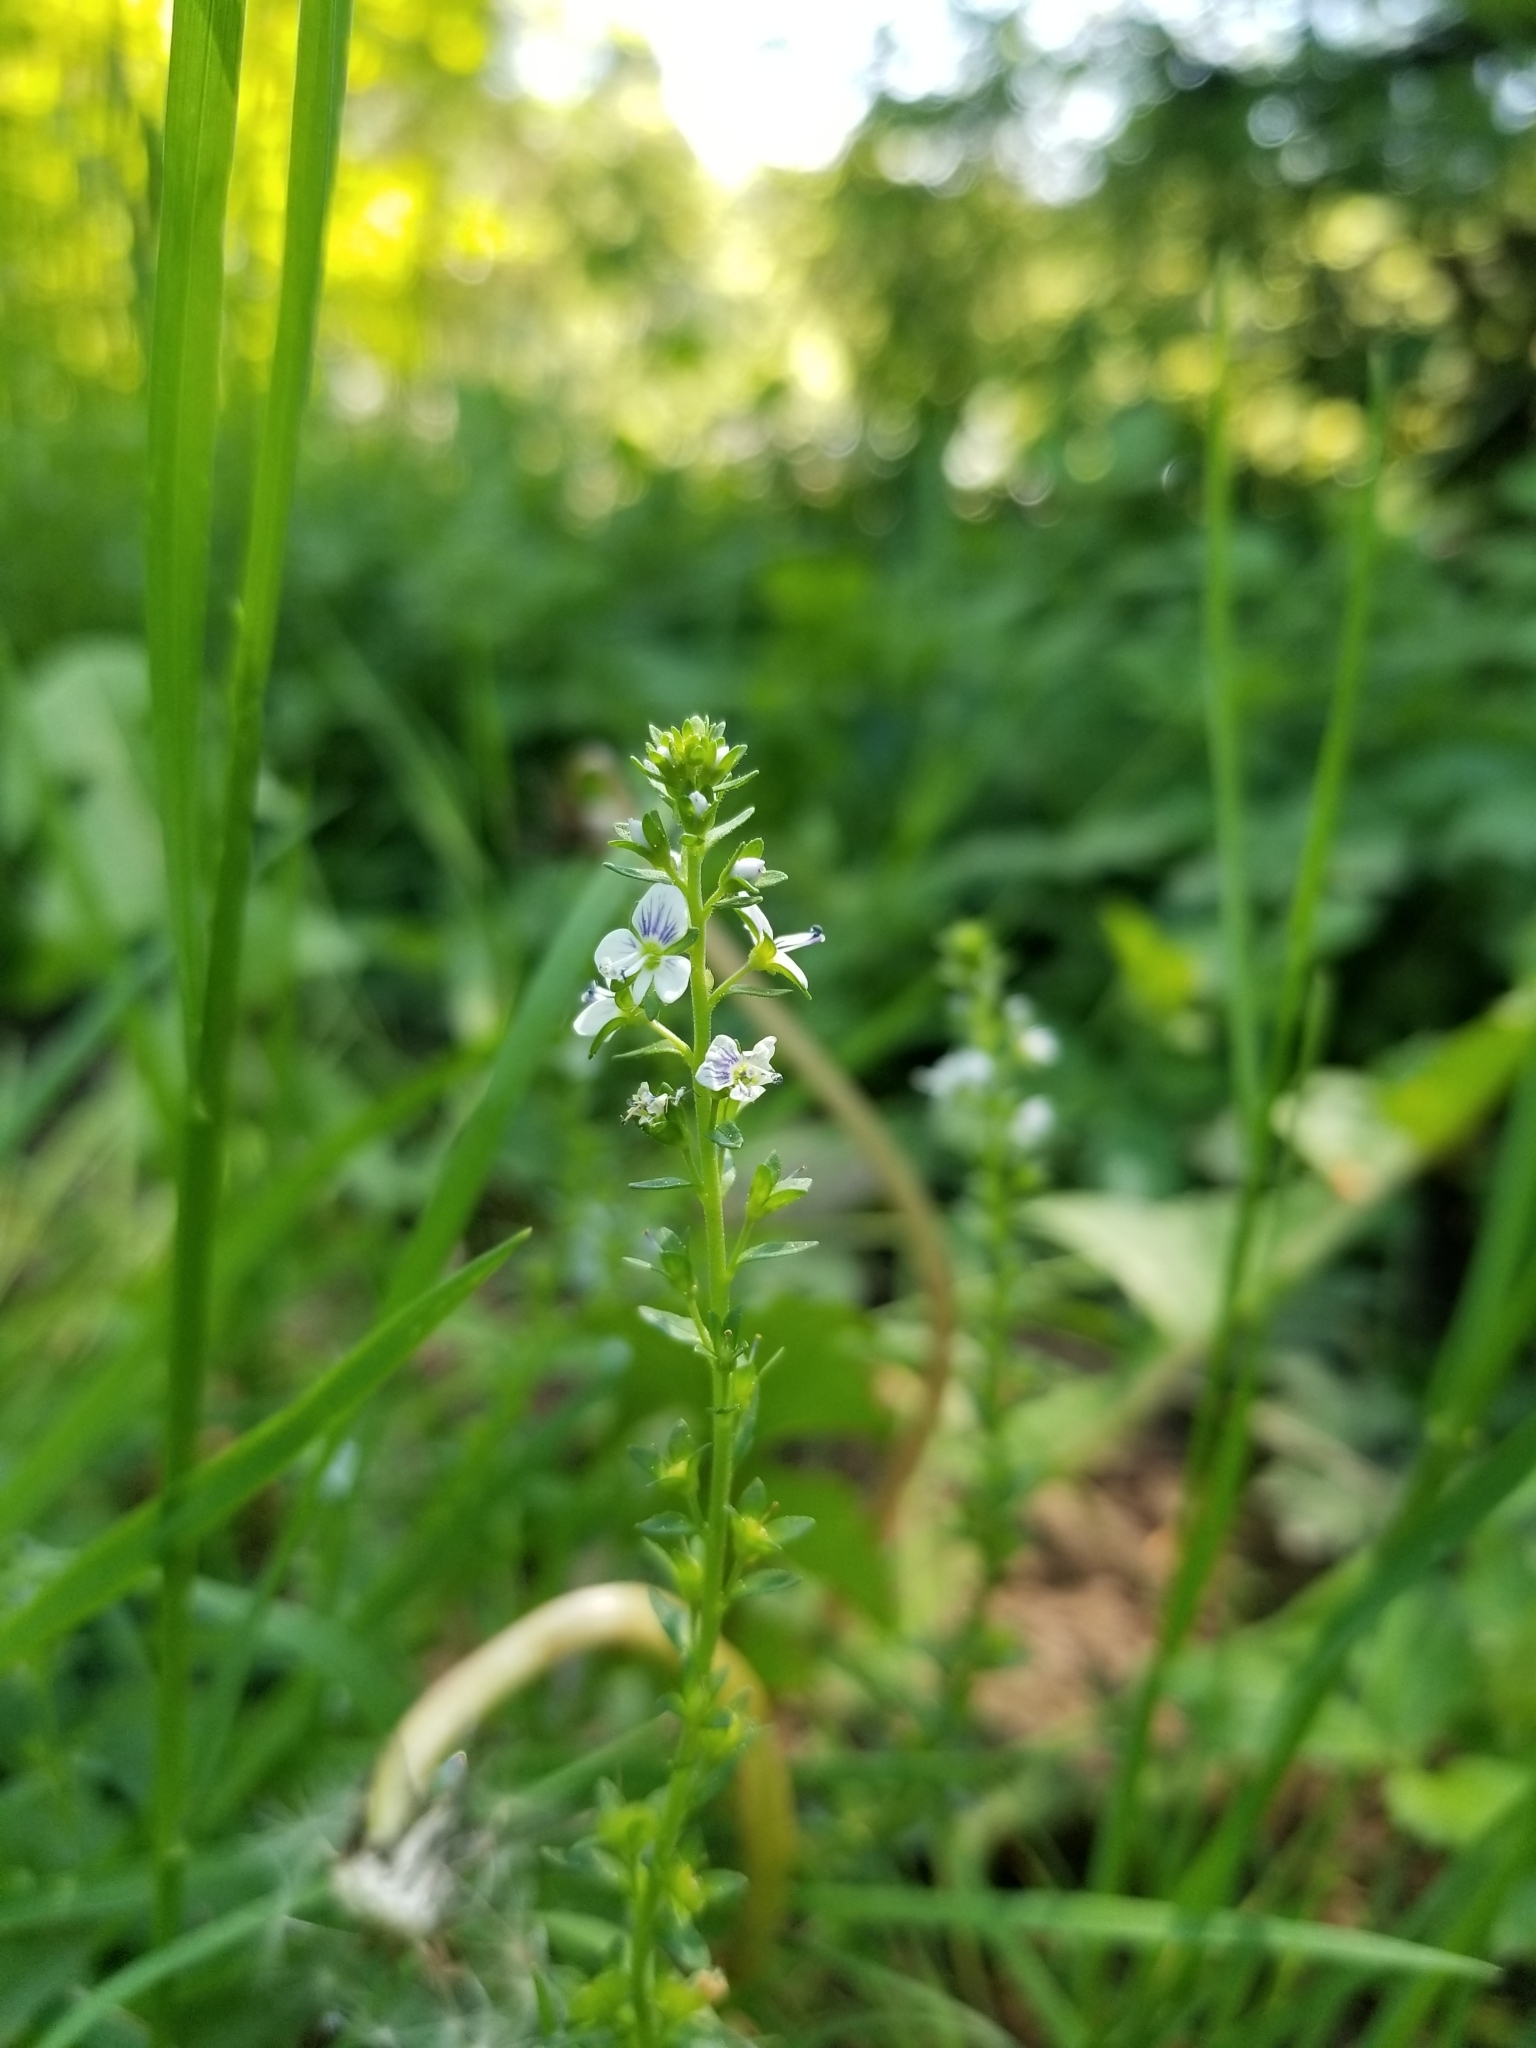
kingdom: Plantae
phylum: Tracheophyta
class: Magnoliopsida
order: Lamiales
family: Plantaginaceae
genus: Veronica
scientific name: Veronica serpyllifolia
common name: Thyme-leaved speedwell
